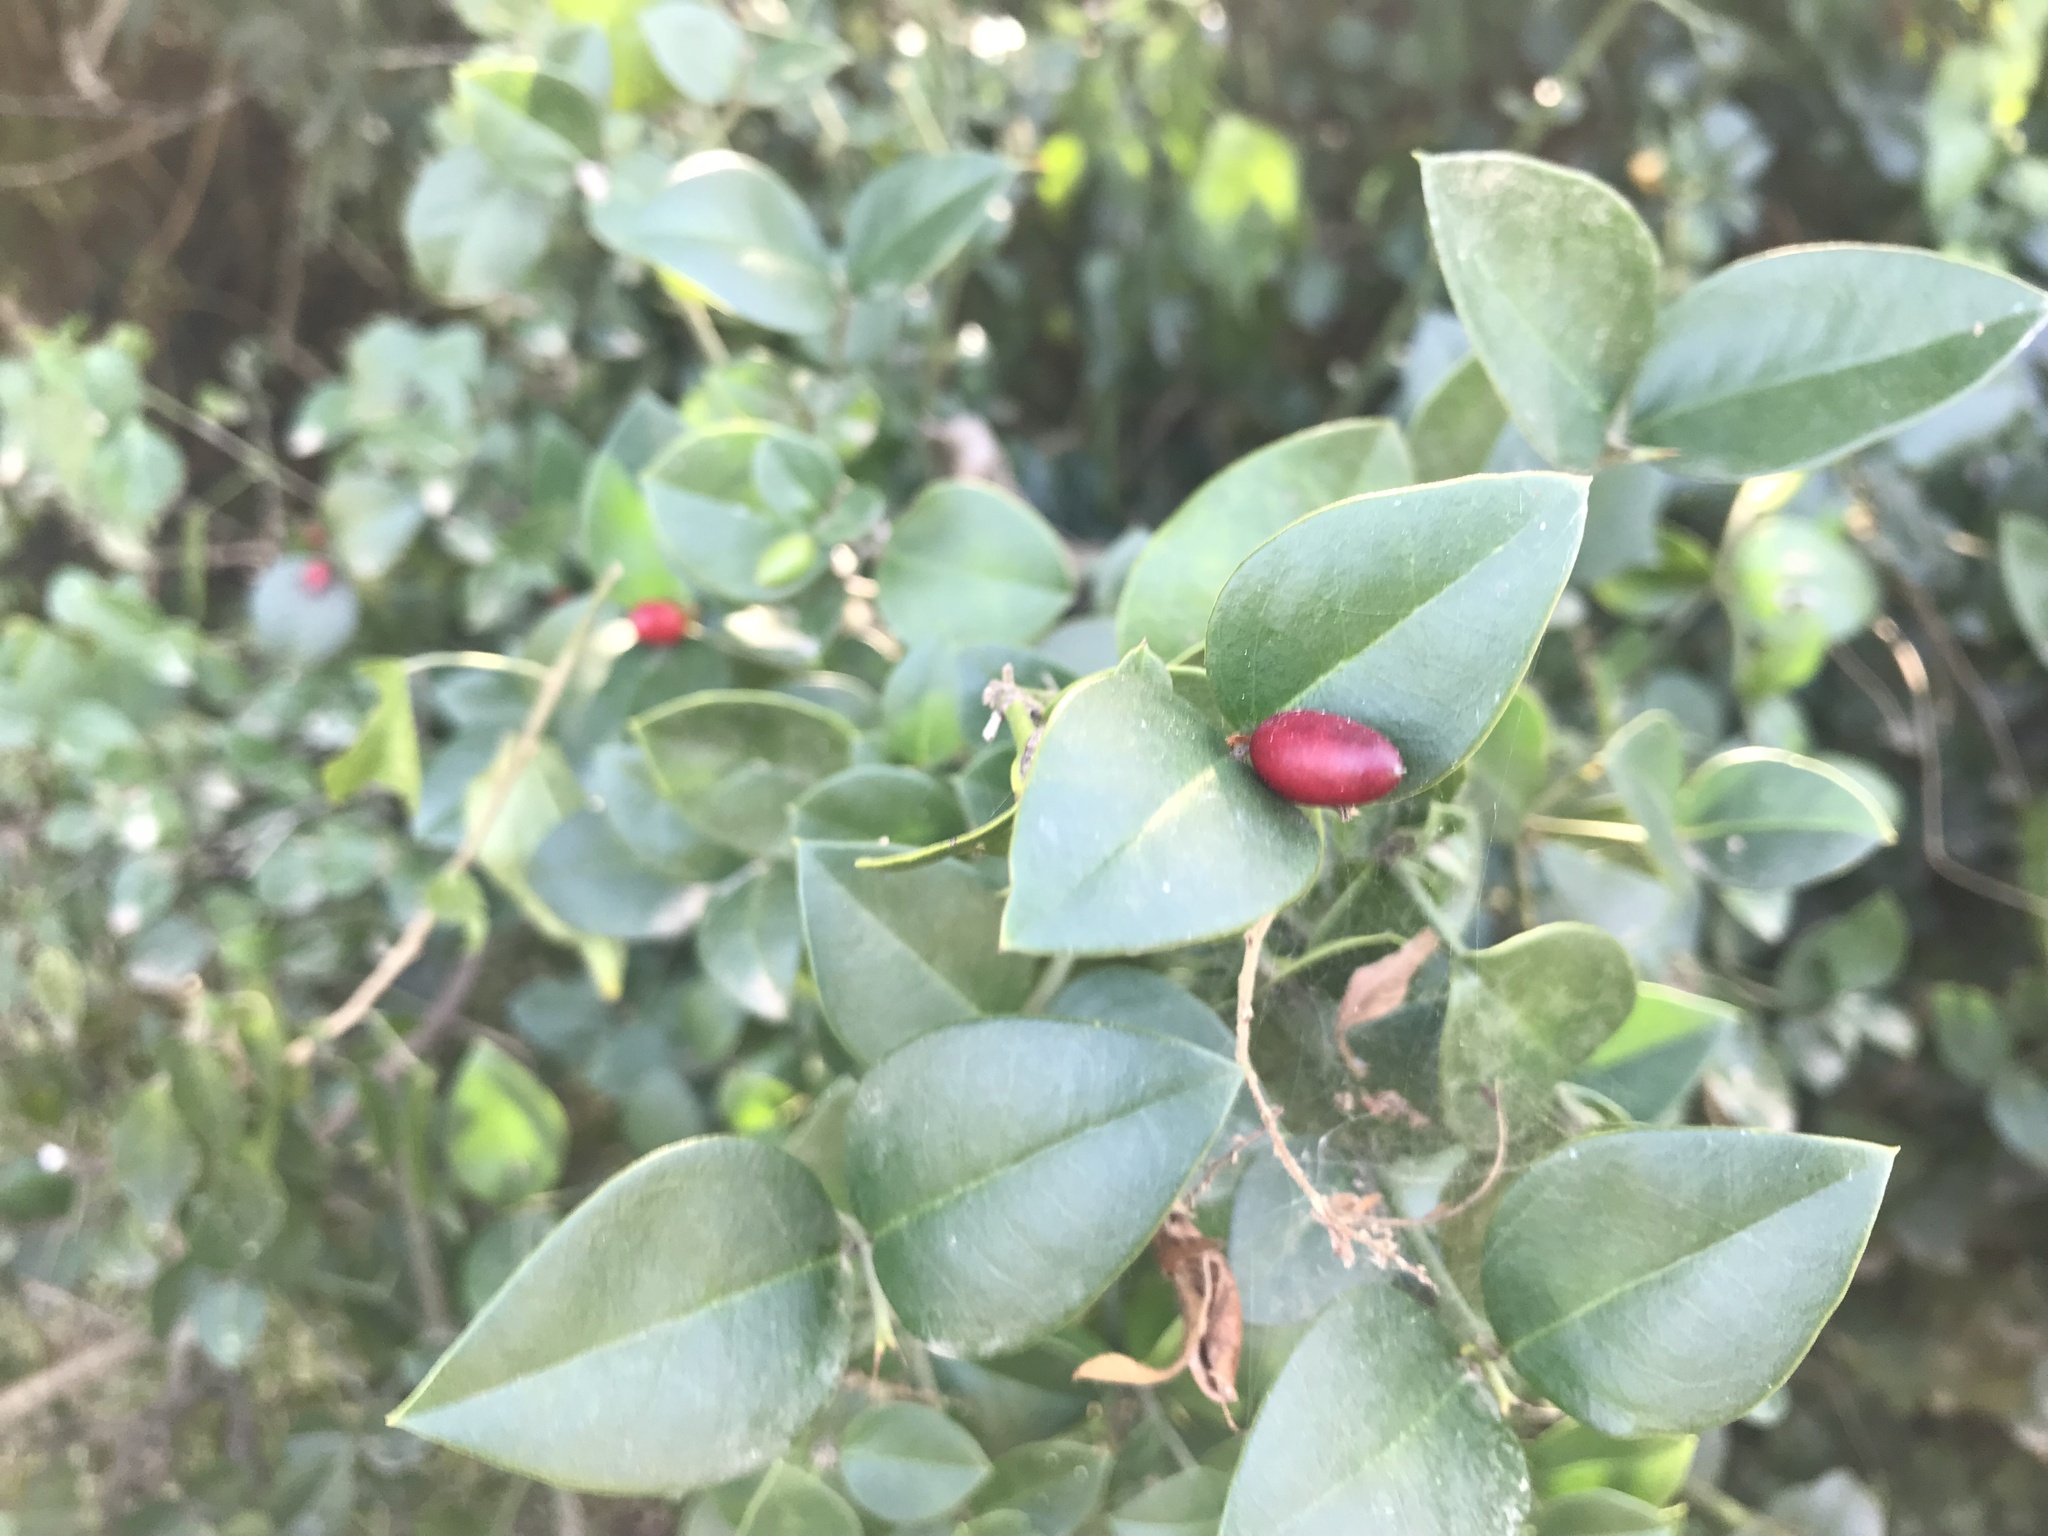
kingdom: Plantae
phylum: Tracheophyta
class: Magnoliopsida
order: Gentianales
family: Apocynaceae
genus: Carissa
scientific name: Carissa bispinosa
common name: Forest num-num
